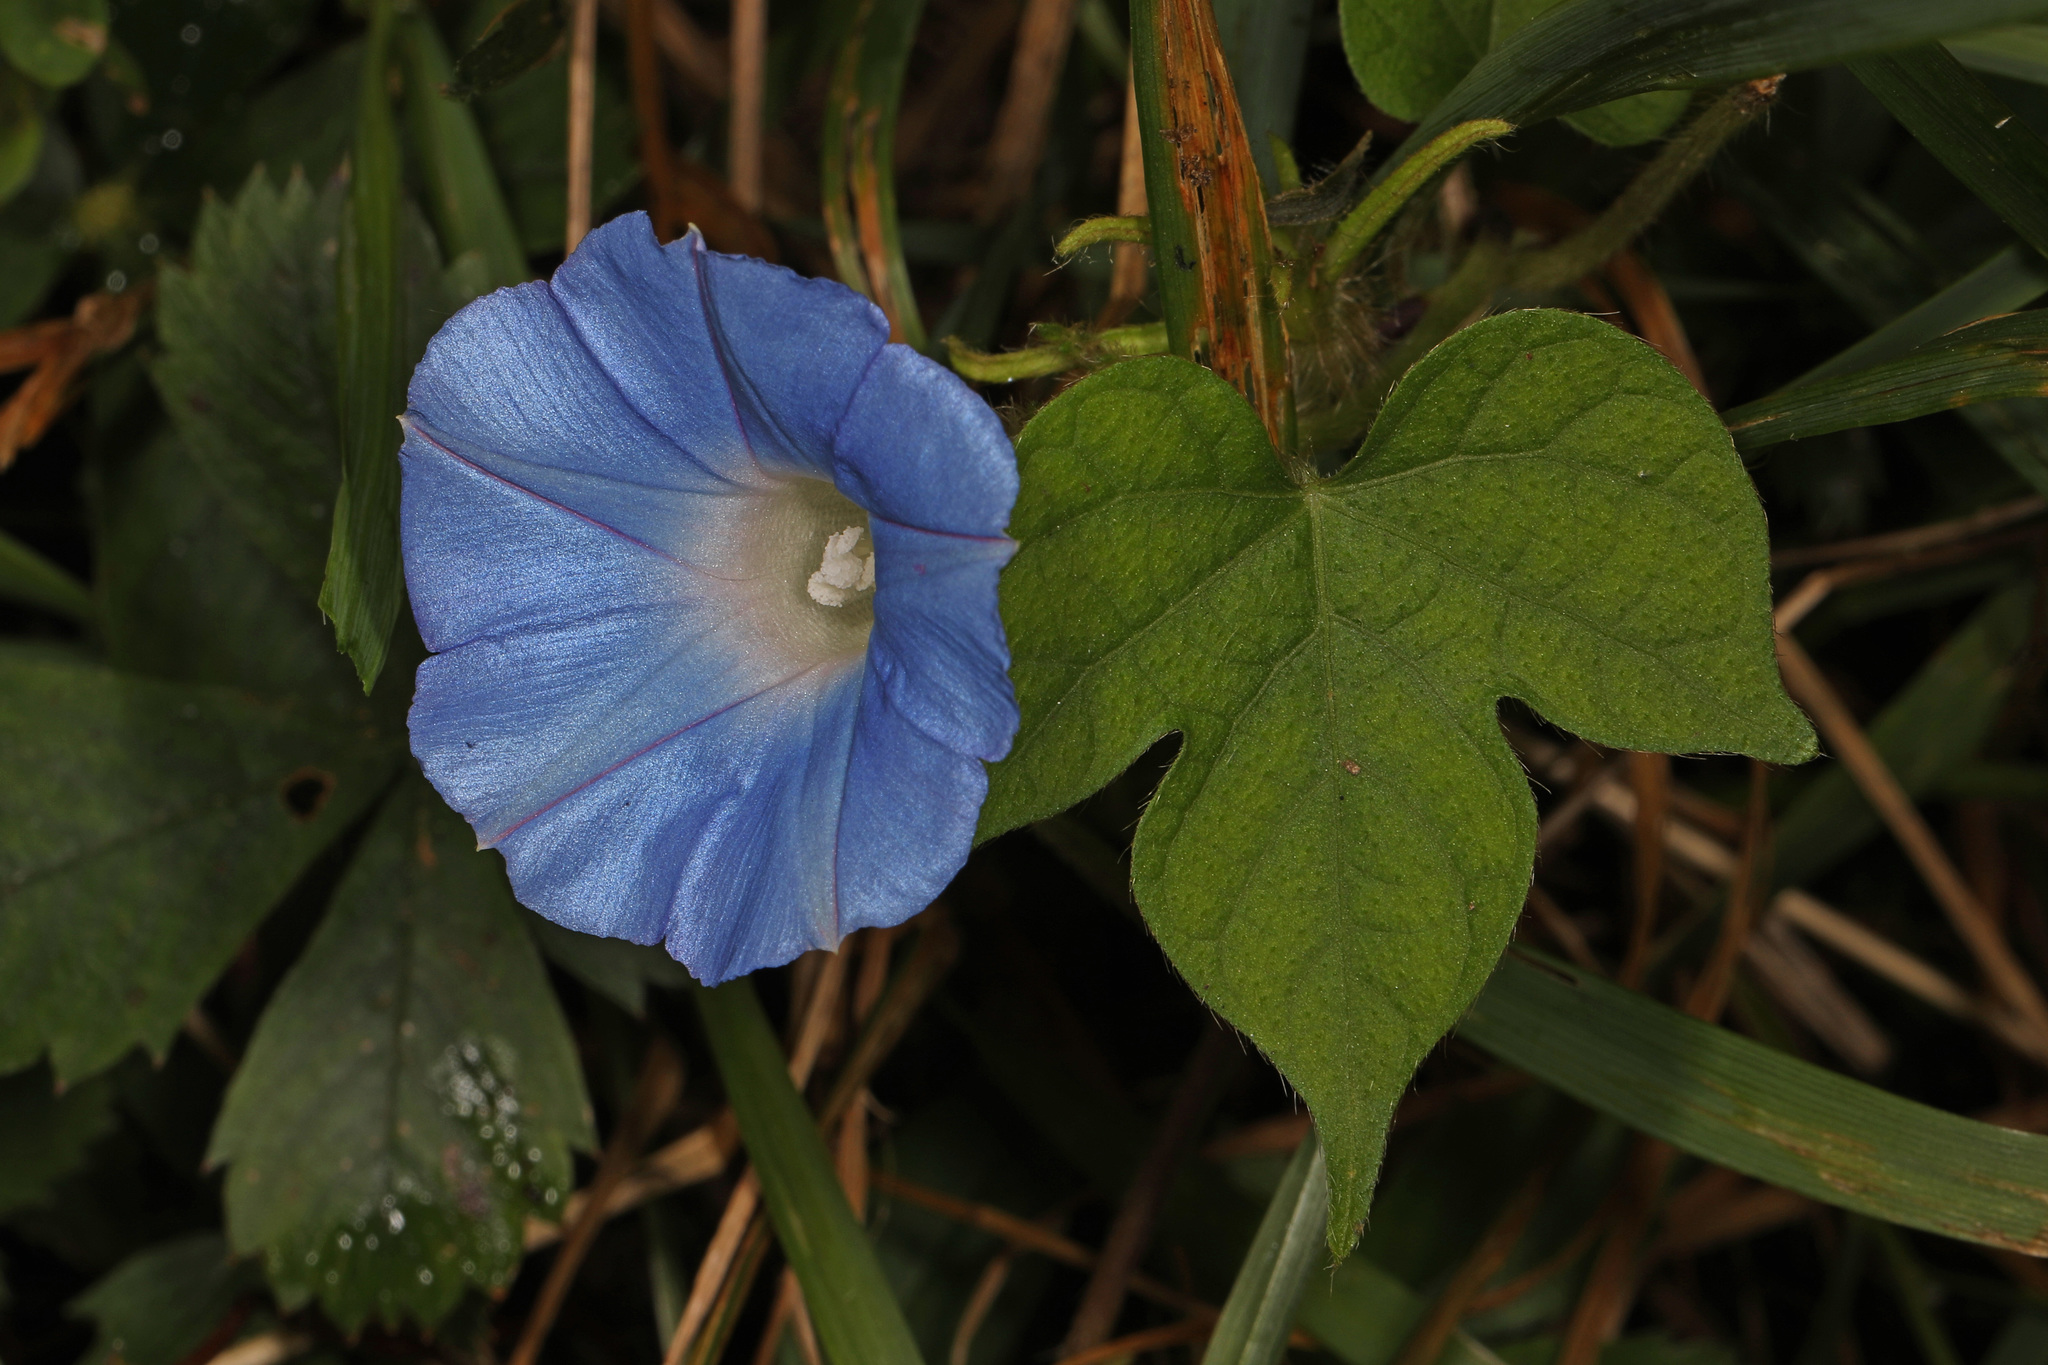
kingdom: Plantae
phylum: Tracheophyta
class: Magnoliopsida
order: Solanales
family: Convolvulaceae
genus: Ipomoea
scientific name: Ipomoea hederacea
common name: Ivy-leaved morning-glory
